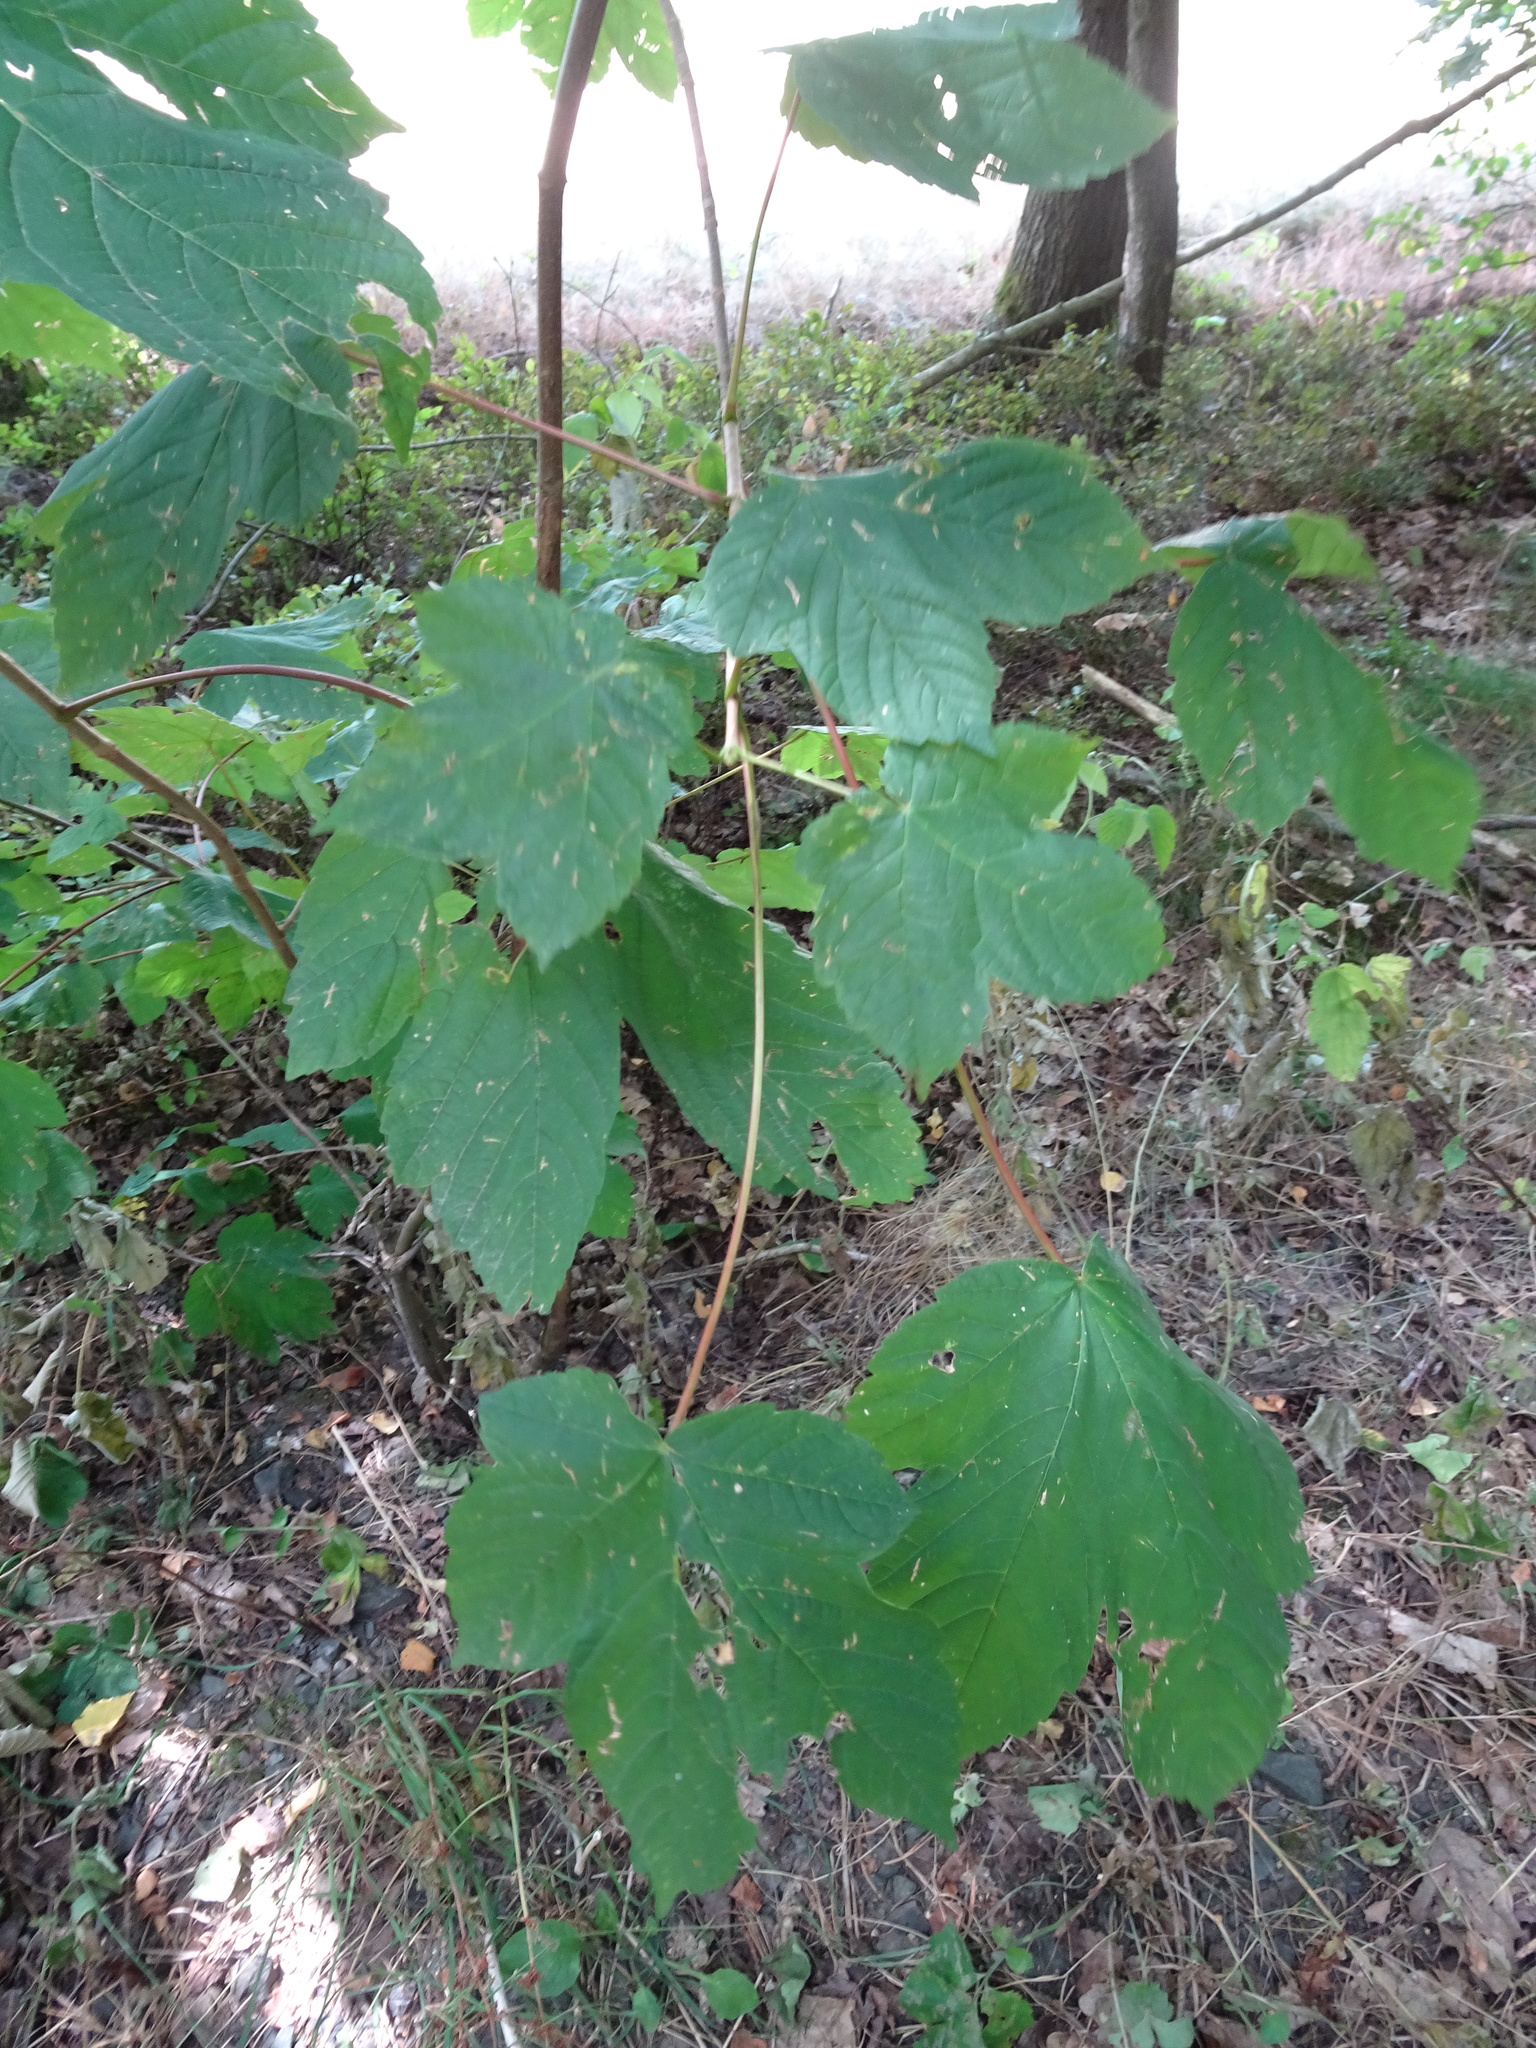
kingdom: Plantae
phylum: Tracheophyta
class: Magnoliopsida
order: Sapindales
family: Sapindaceae
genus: Acer
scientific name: Acer pseudoplatanus
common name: Sycamore
